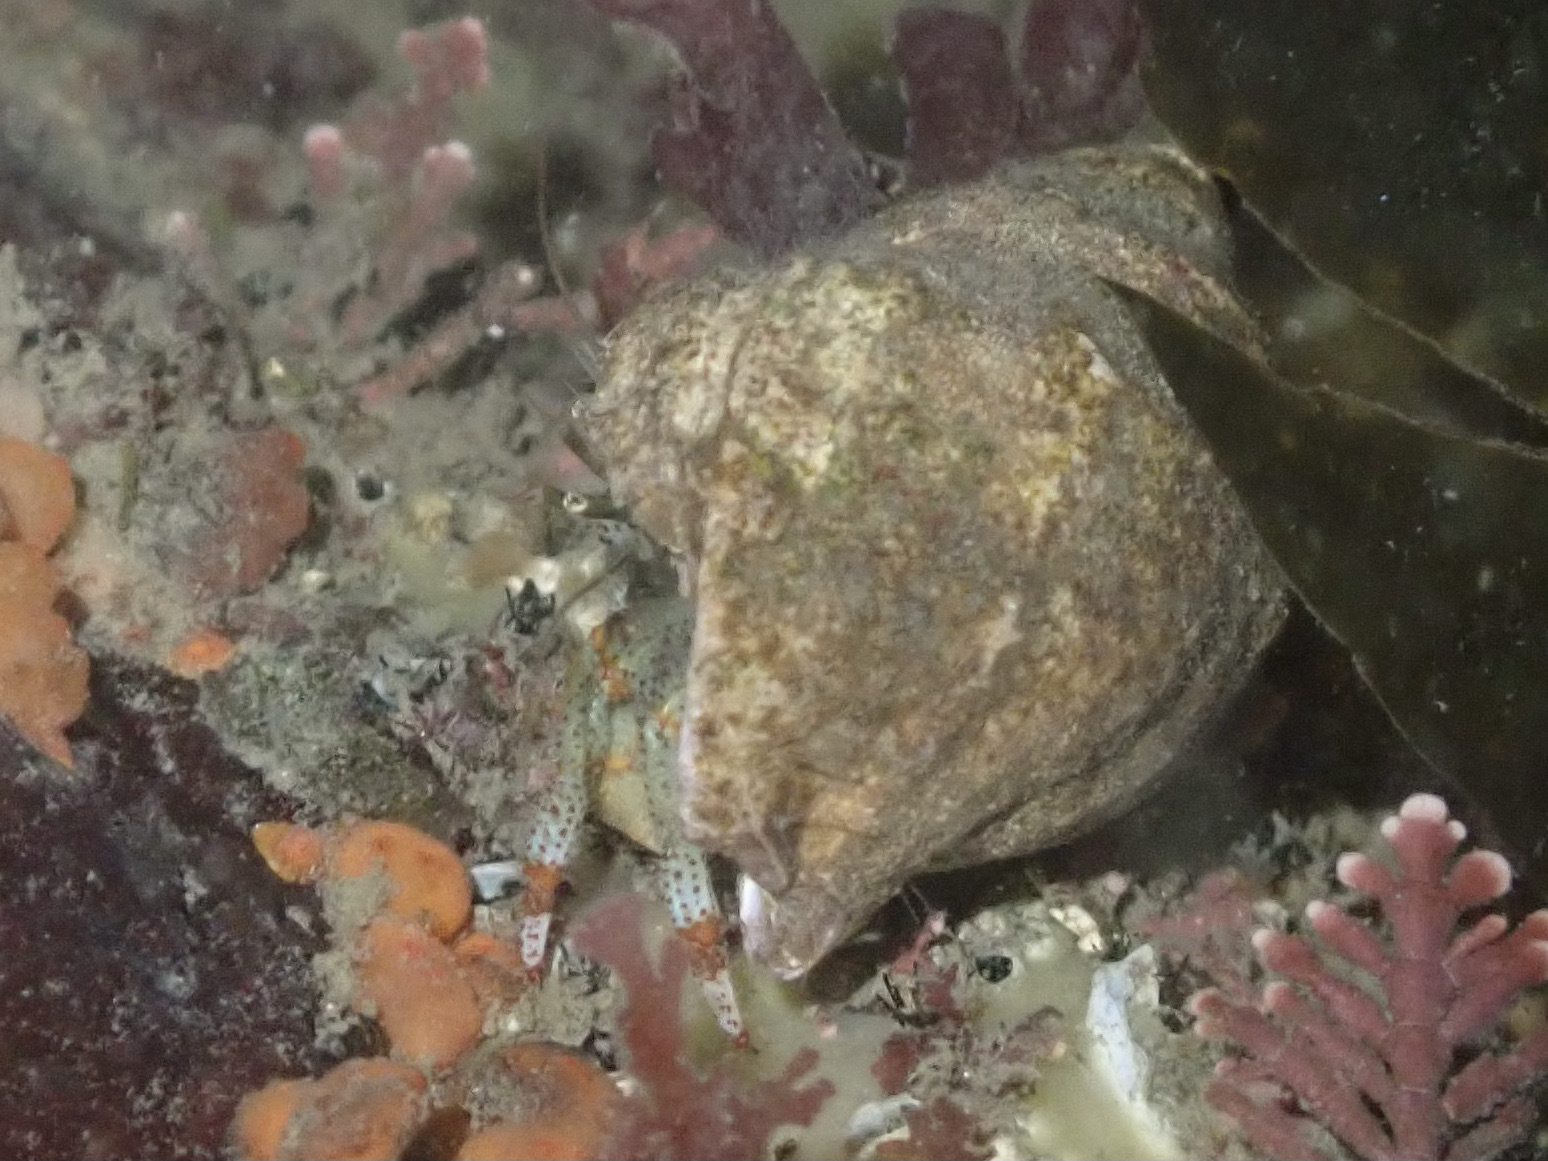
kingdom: Animalia
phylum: Arthropoda
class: Malacostraca
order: Decapoda
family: Paguridae
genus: Pagurus
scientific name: Pagurus beringanus
